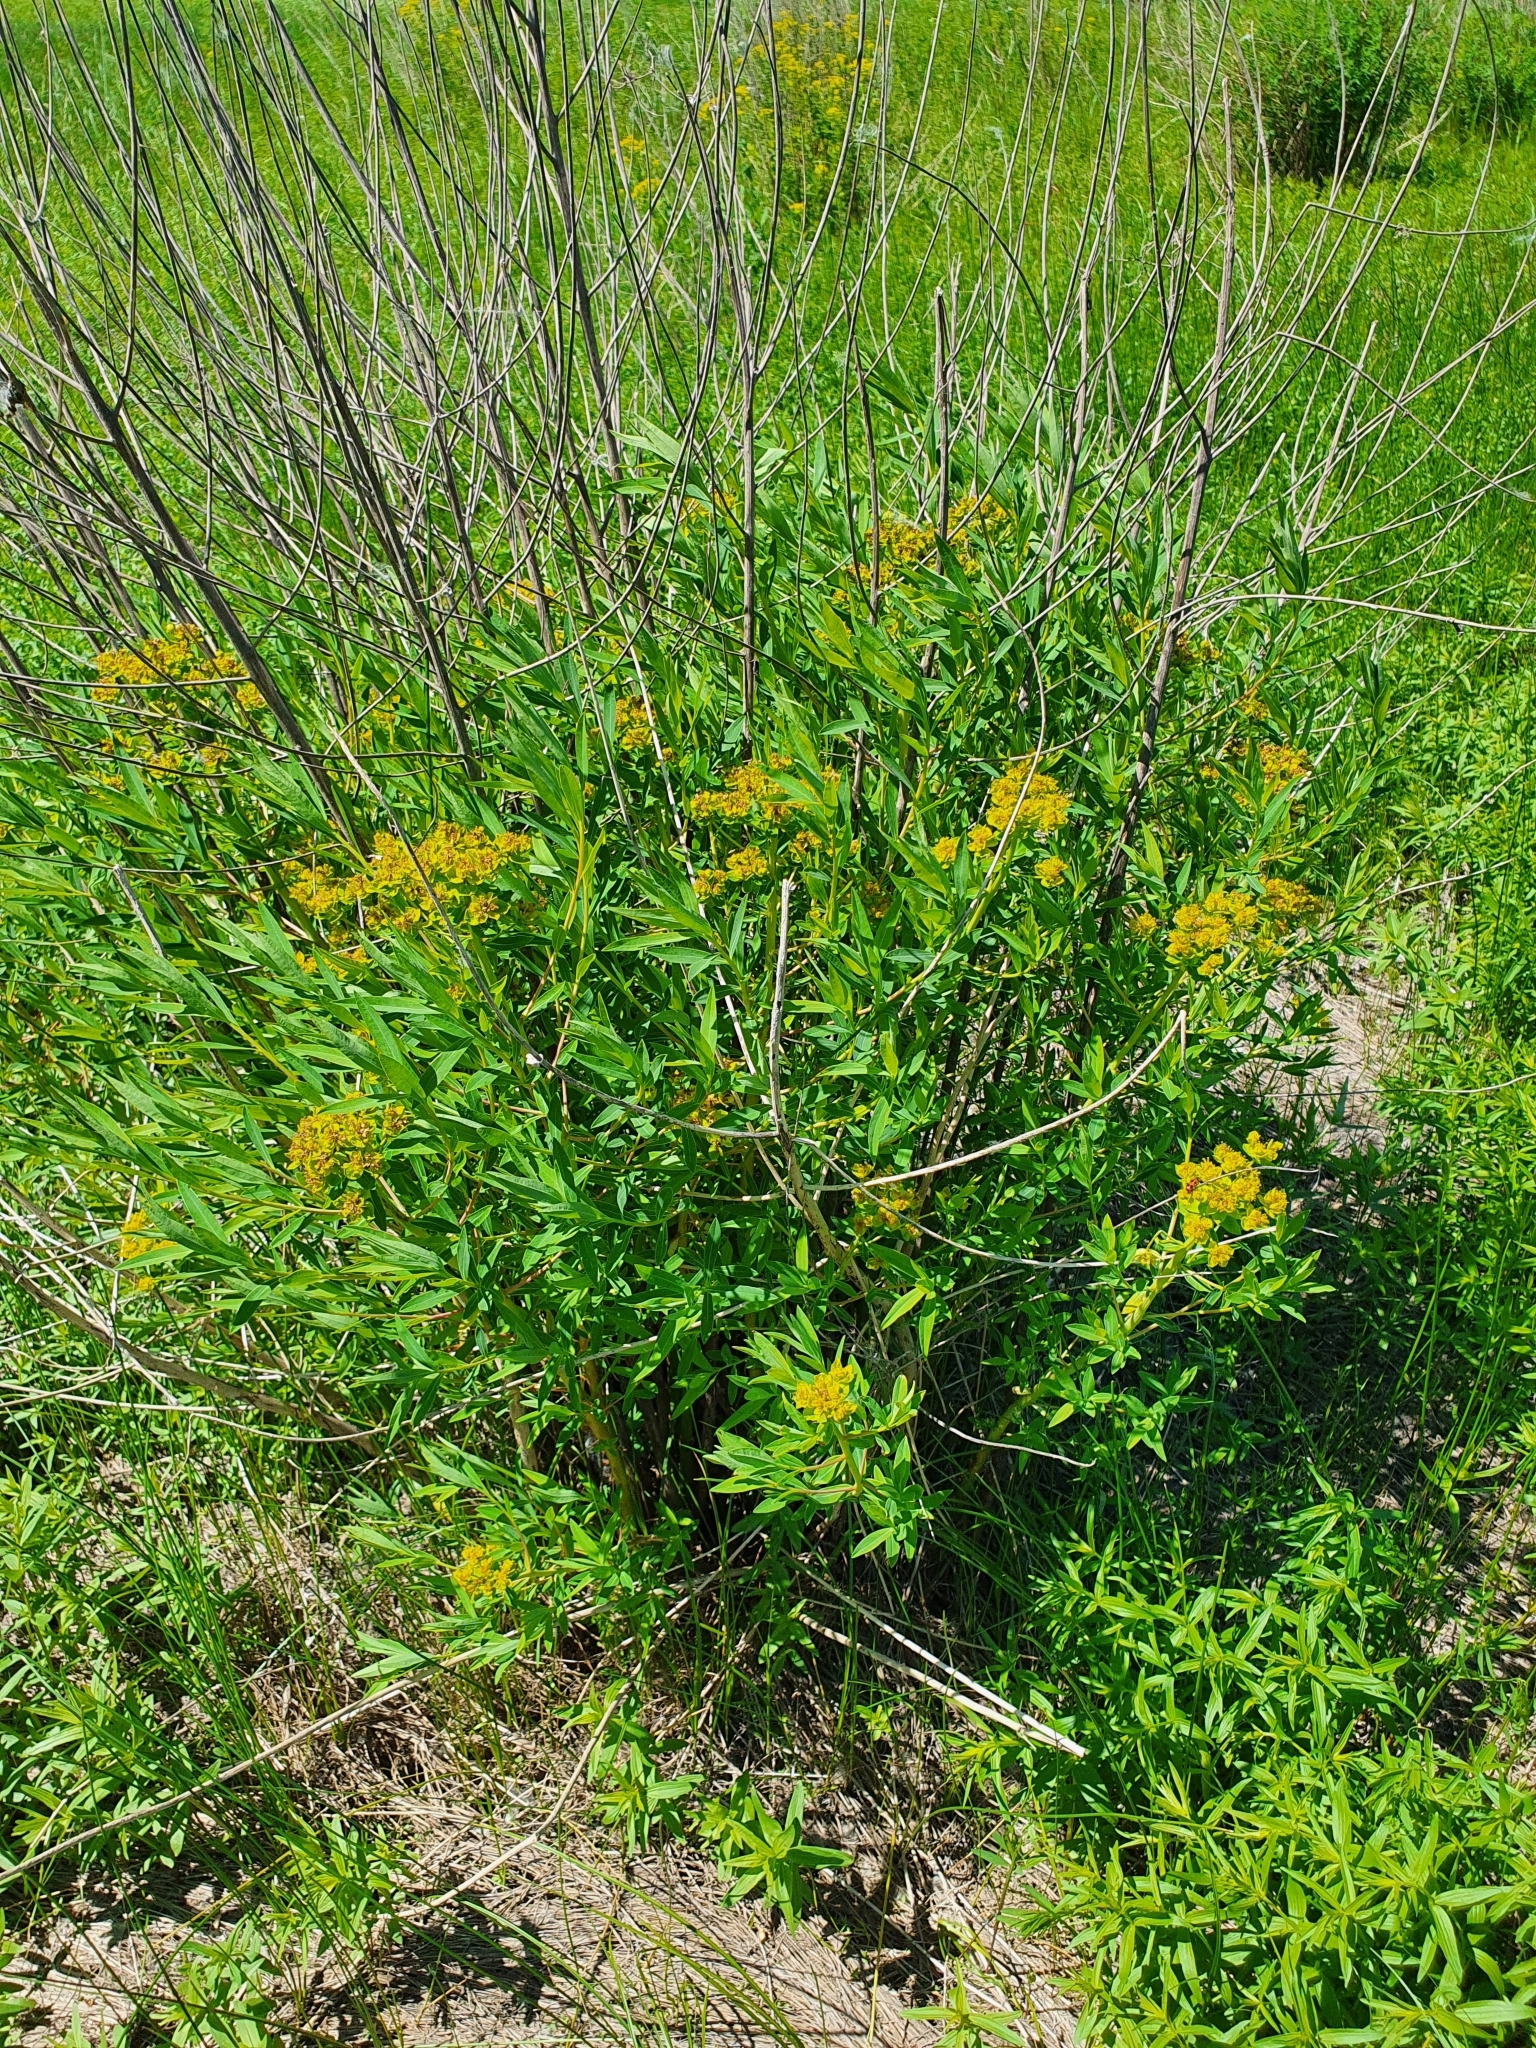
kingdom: Plantae
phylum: Tracheophyta
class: Magnoliopsida
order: Malpighiales
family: Euphorbiaceae
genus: Euphorbia
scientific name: Euphorbia palustris
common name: Marsh spurge
